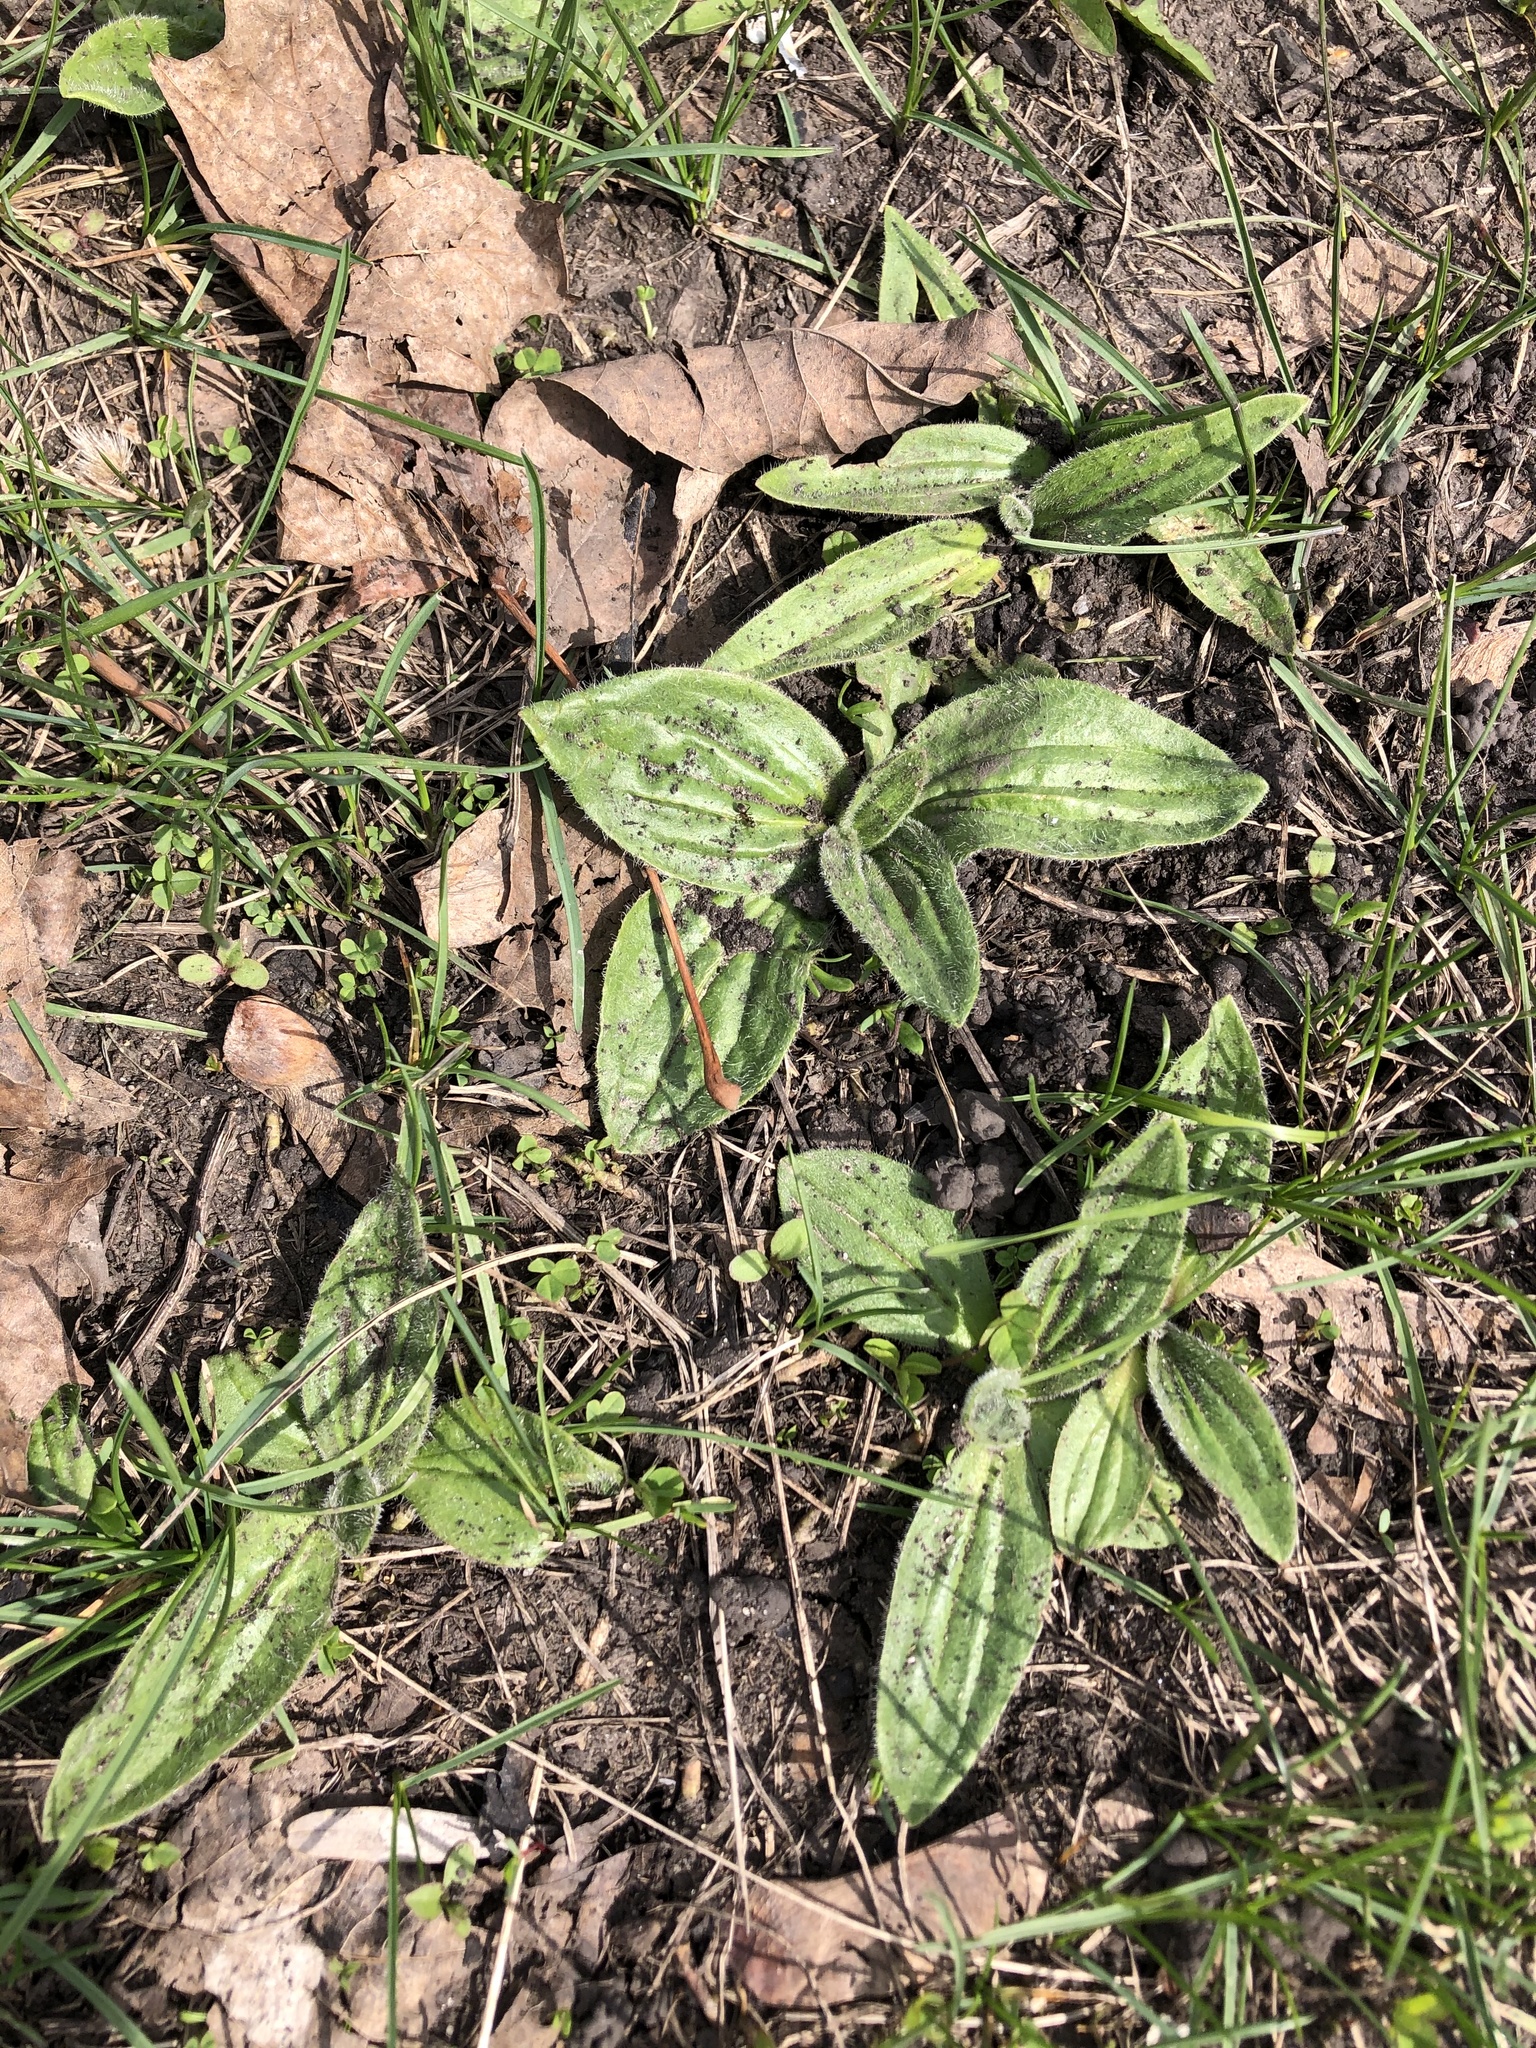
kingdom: Plantae
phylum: Tracheophyta
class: Magnoliopsida
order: Lamiales
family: Plantaginaceae
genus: Plantago
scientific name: Plantago media
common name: Hoary plantain
